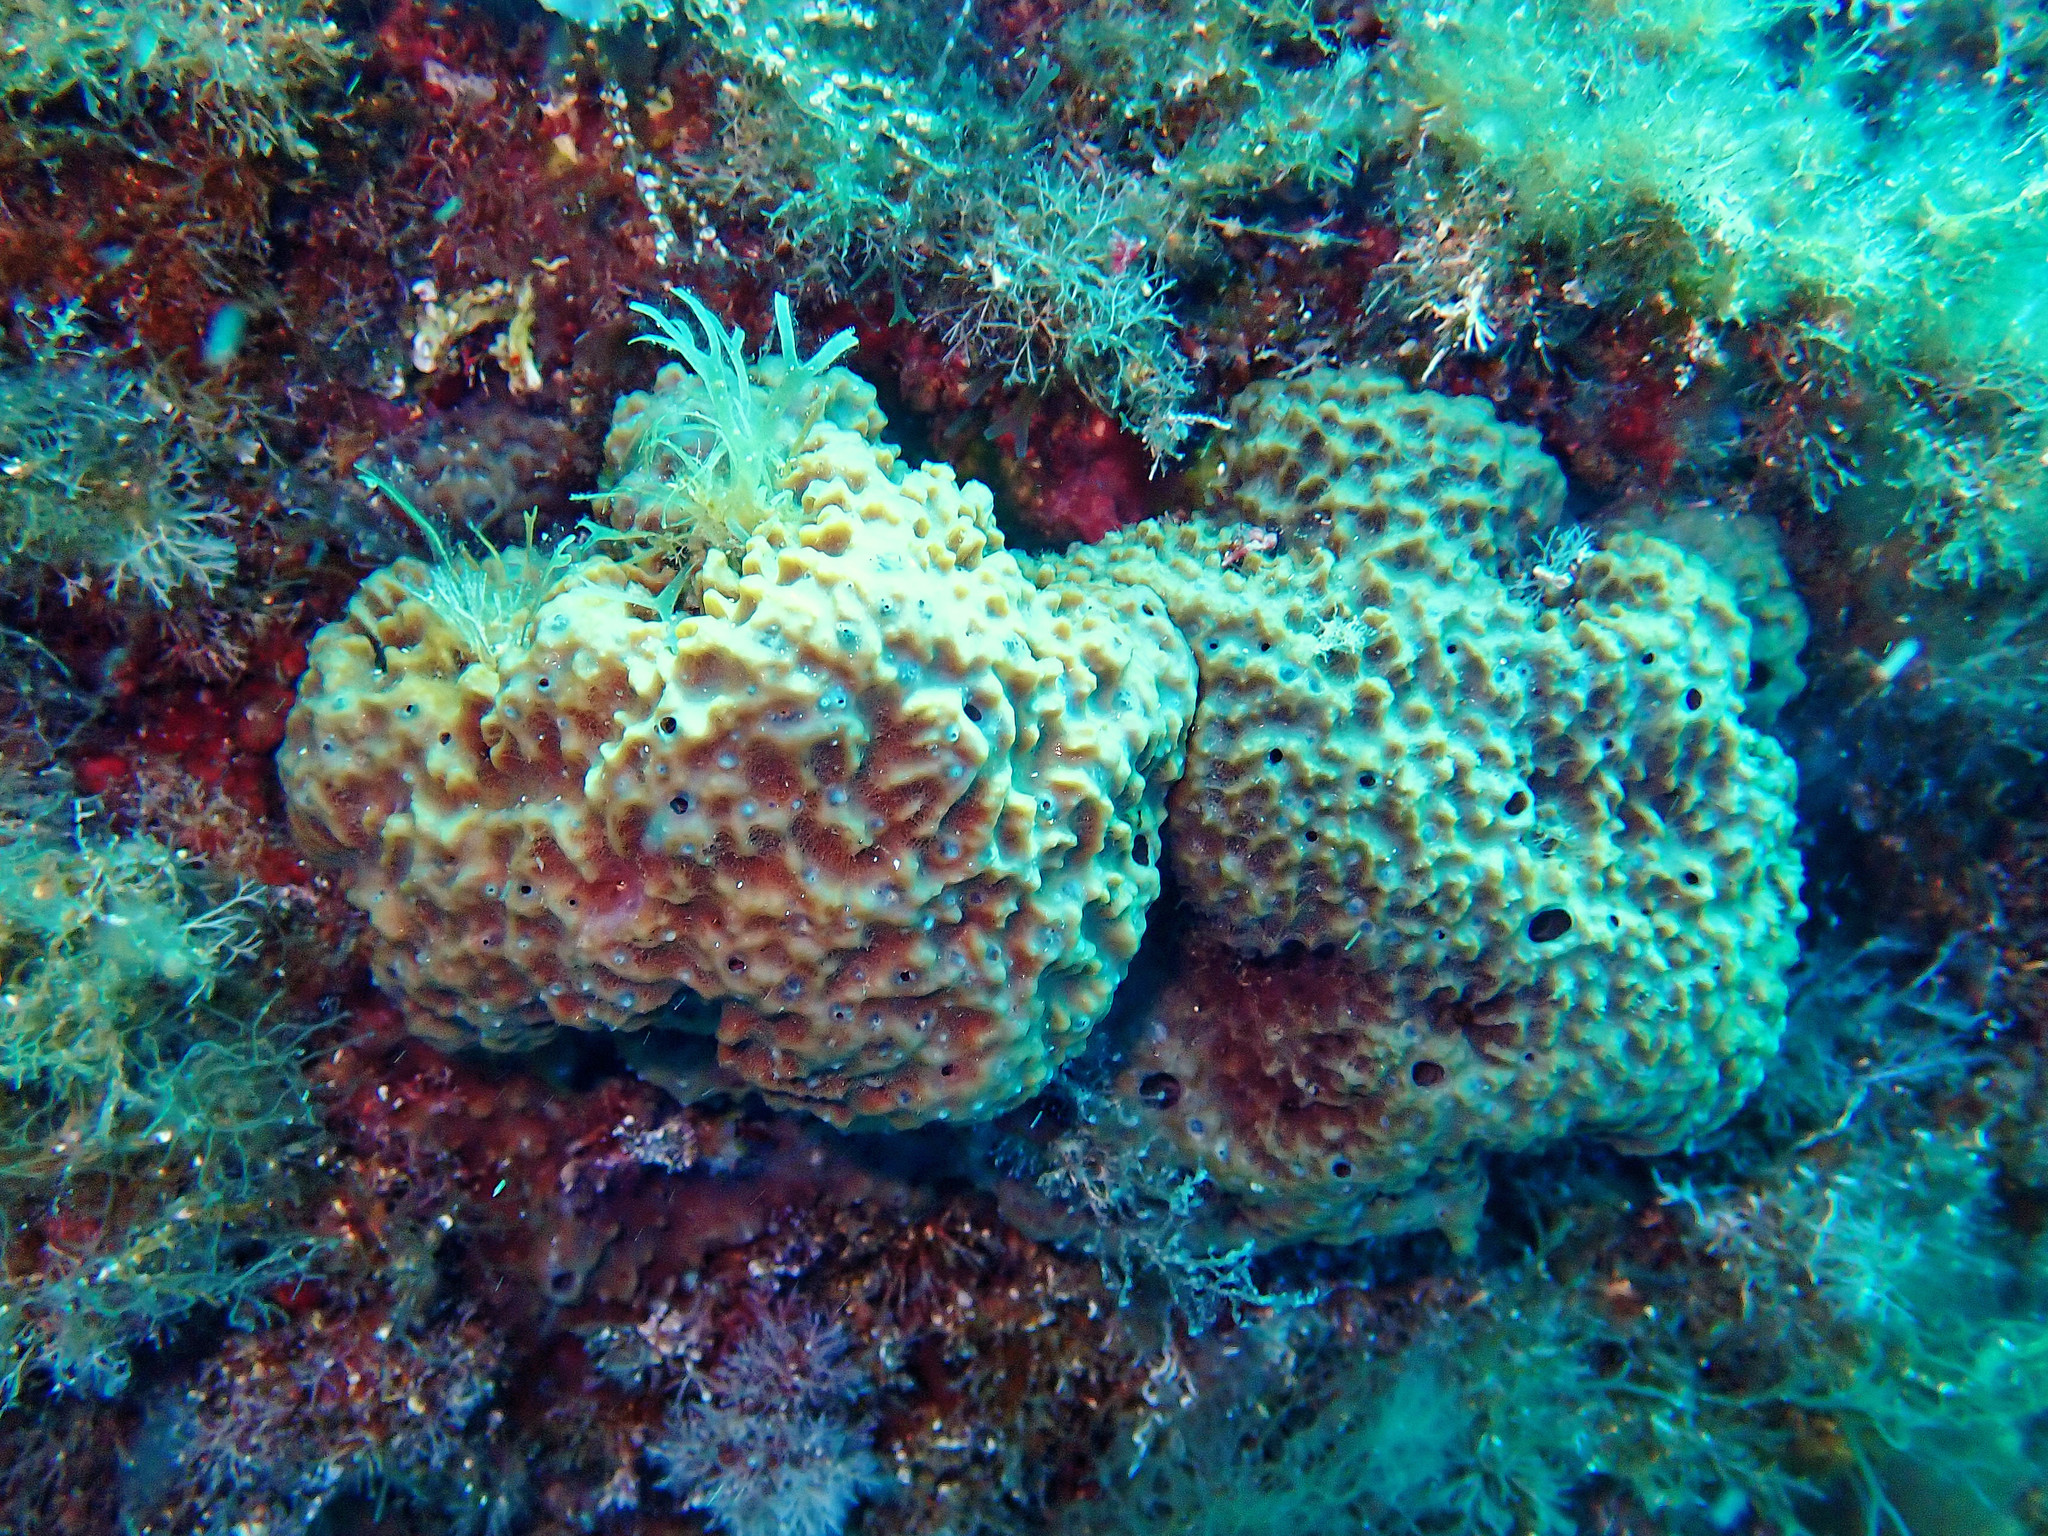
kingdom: Animalia
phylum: Porifera
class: Demospongiae
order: Dictyoceratida
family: Irciniidae
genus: Sarcotragus
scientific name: Sarcotragus fasciculatus
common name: Stinker sponge
